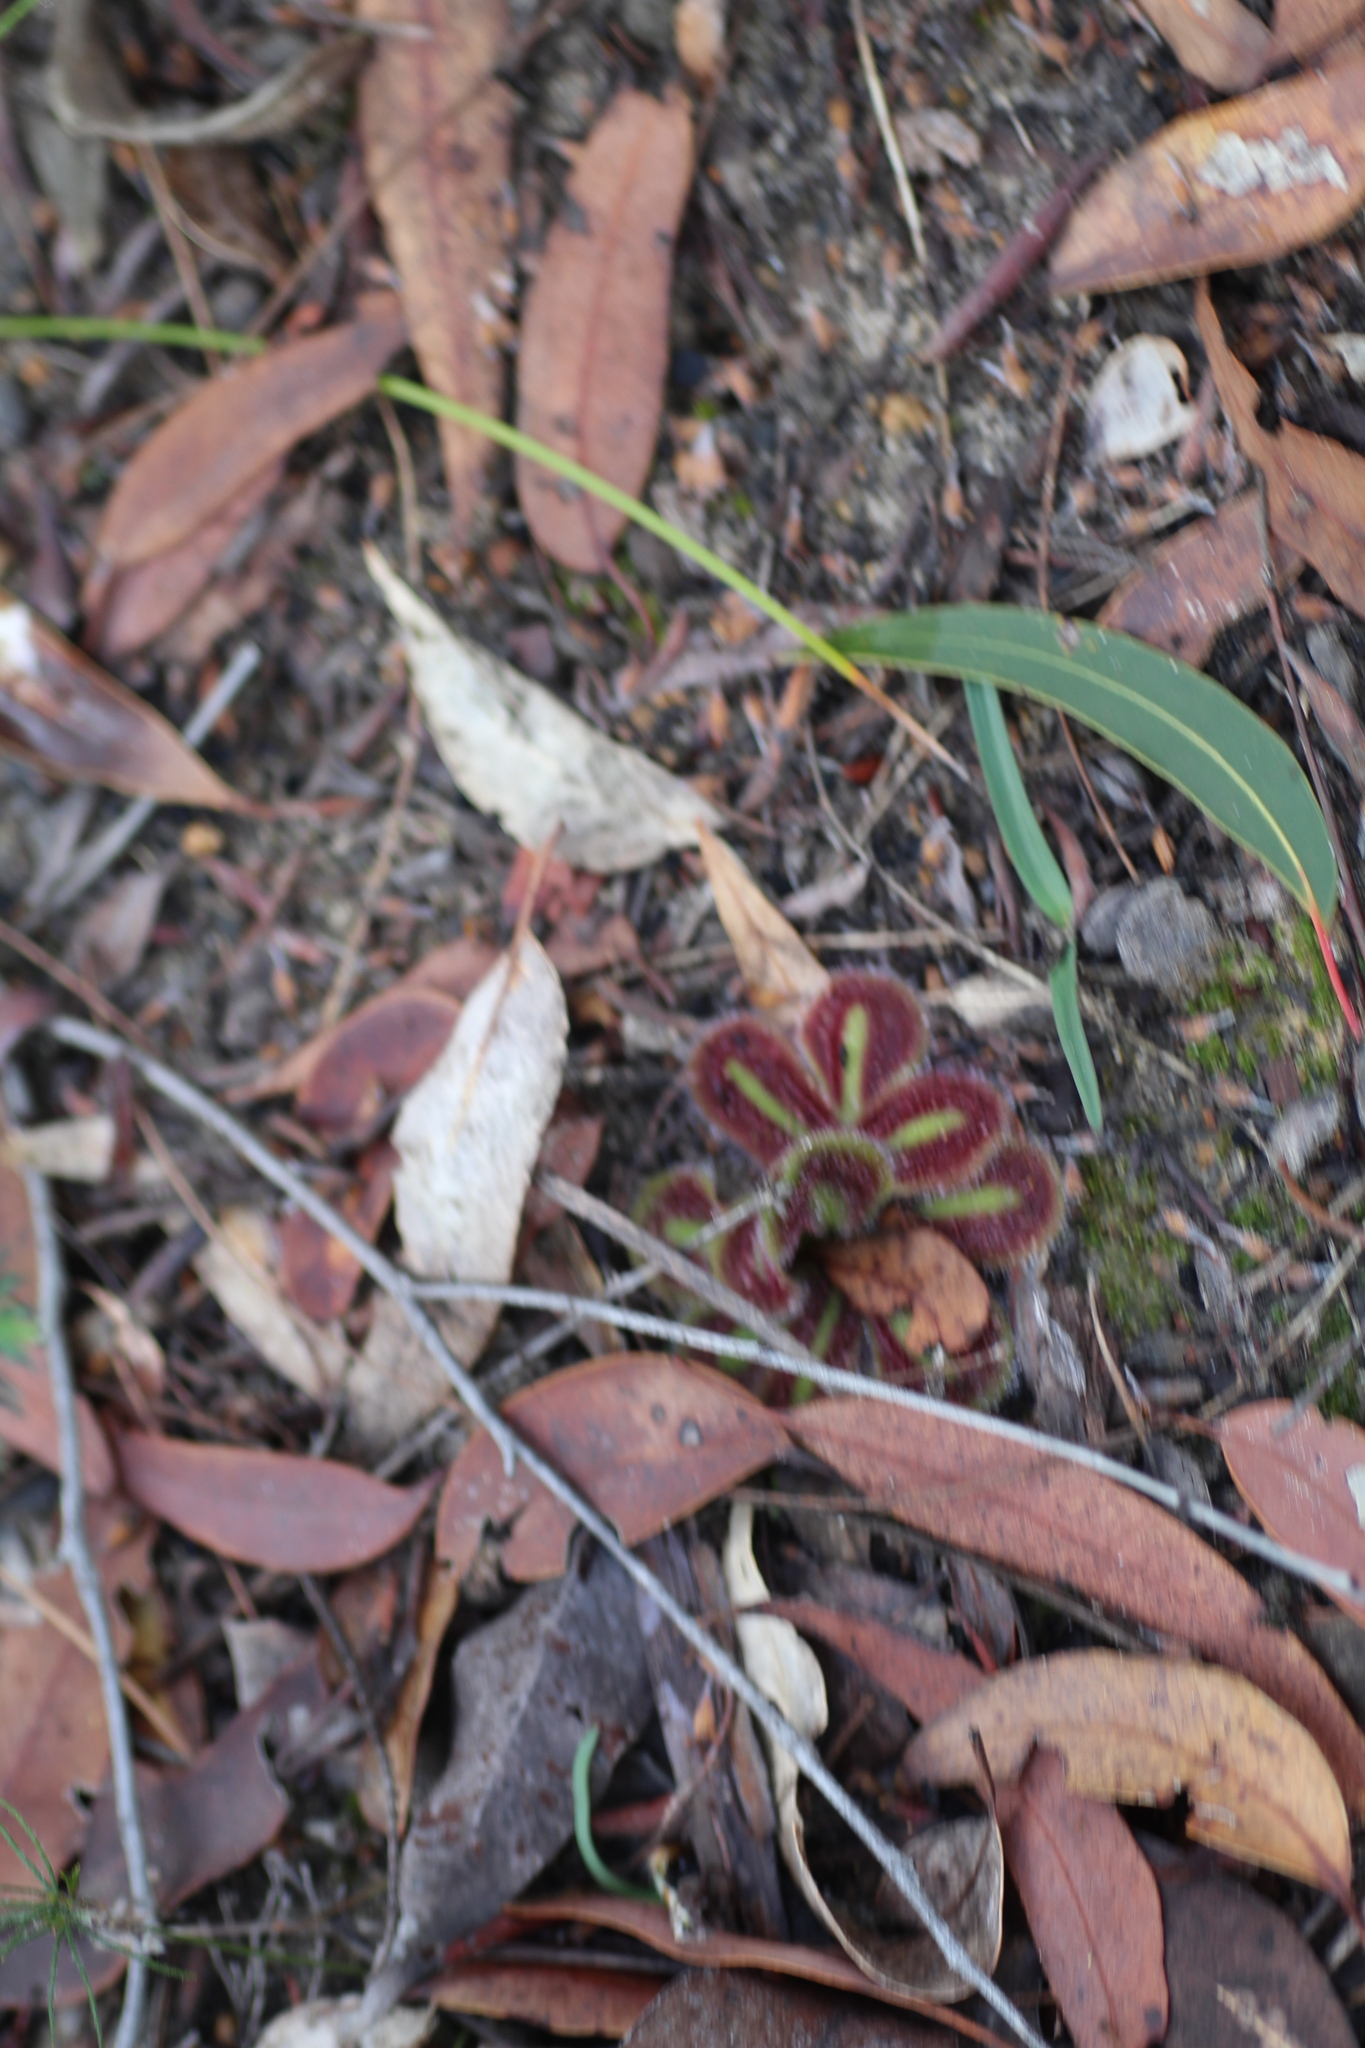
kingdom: Plantae
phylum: Tracheophyta
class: Magnoliopsida
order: Caryophyllales
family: Droseraceae
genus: Drosera
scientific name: Drosera erythrorhiza
